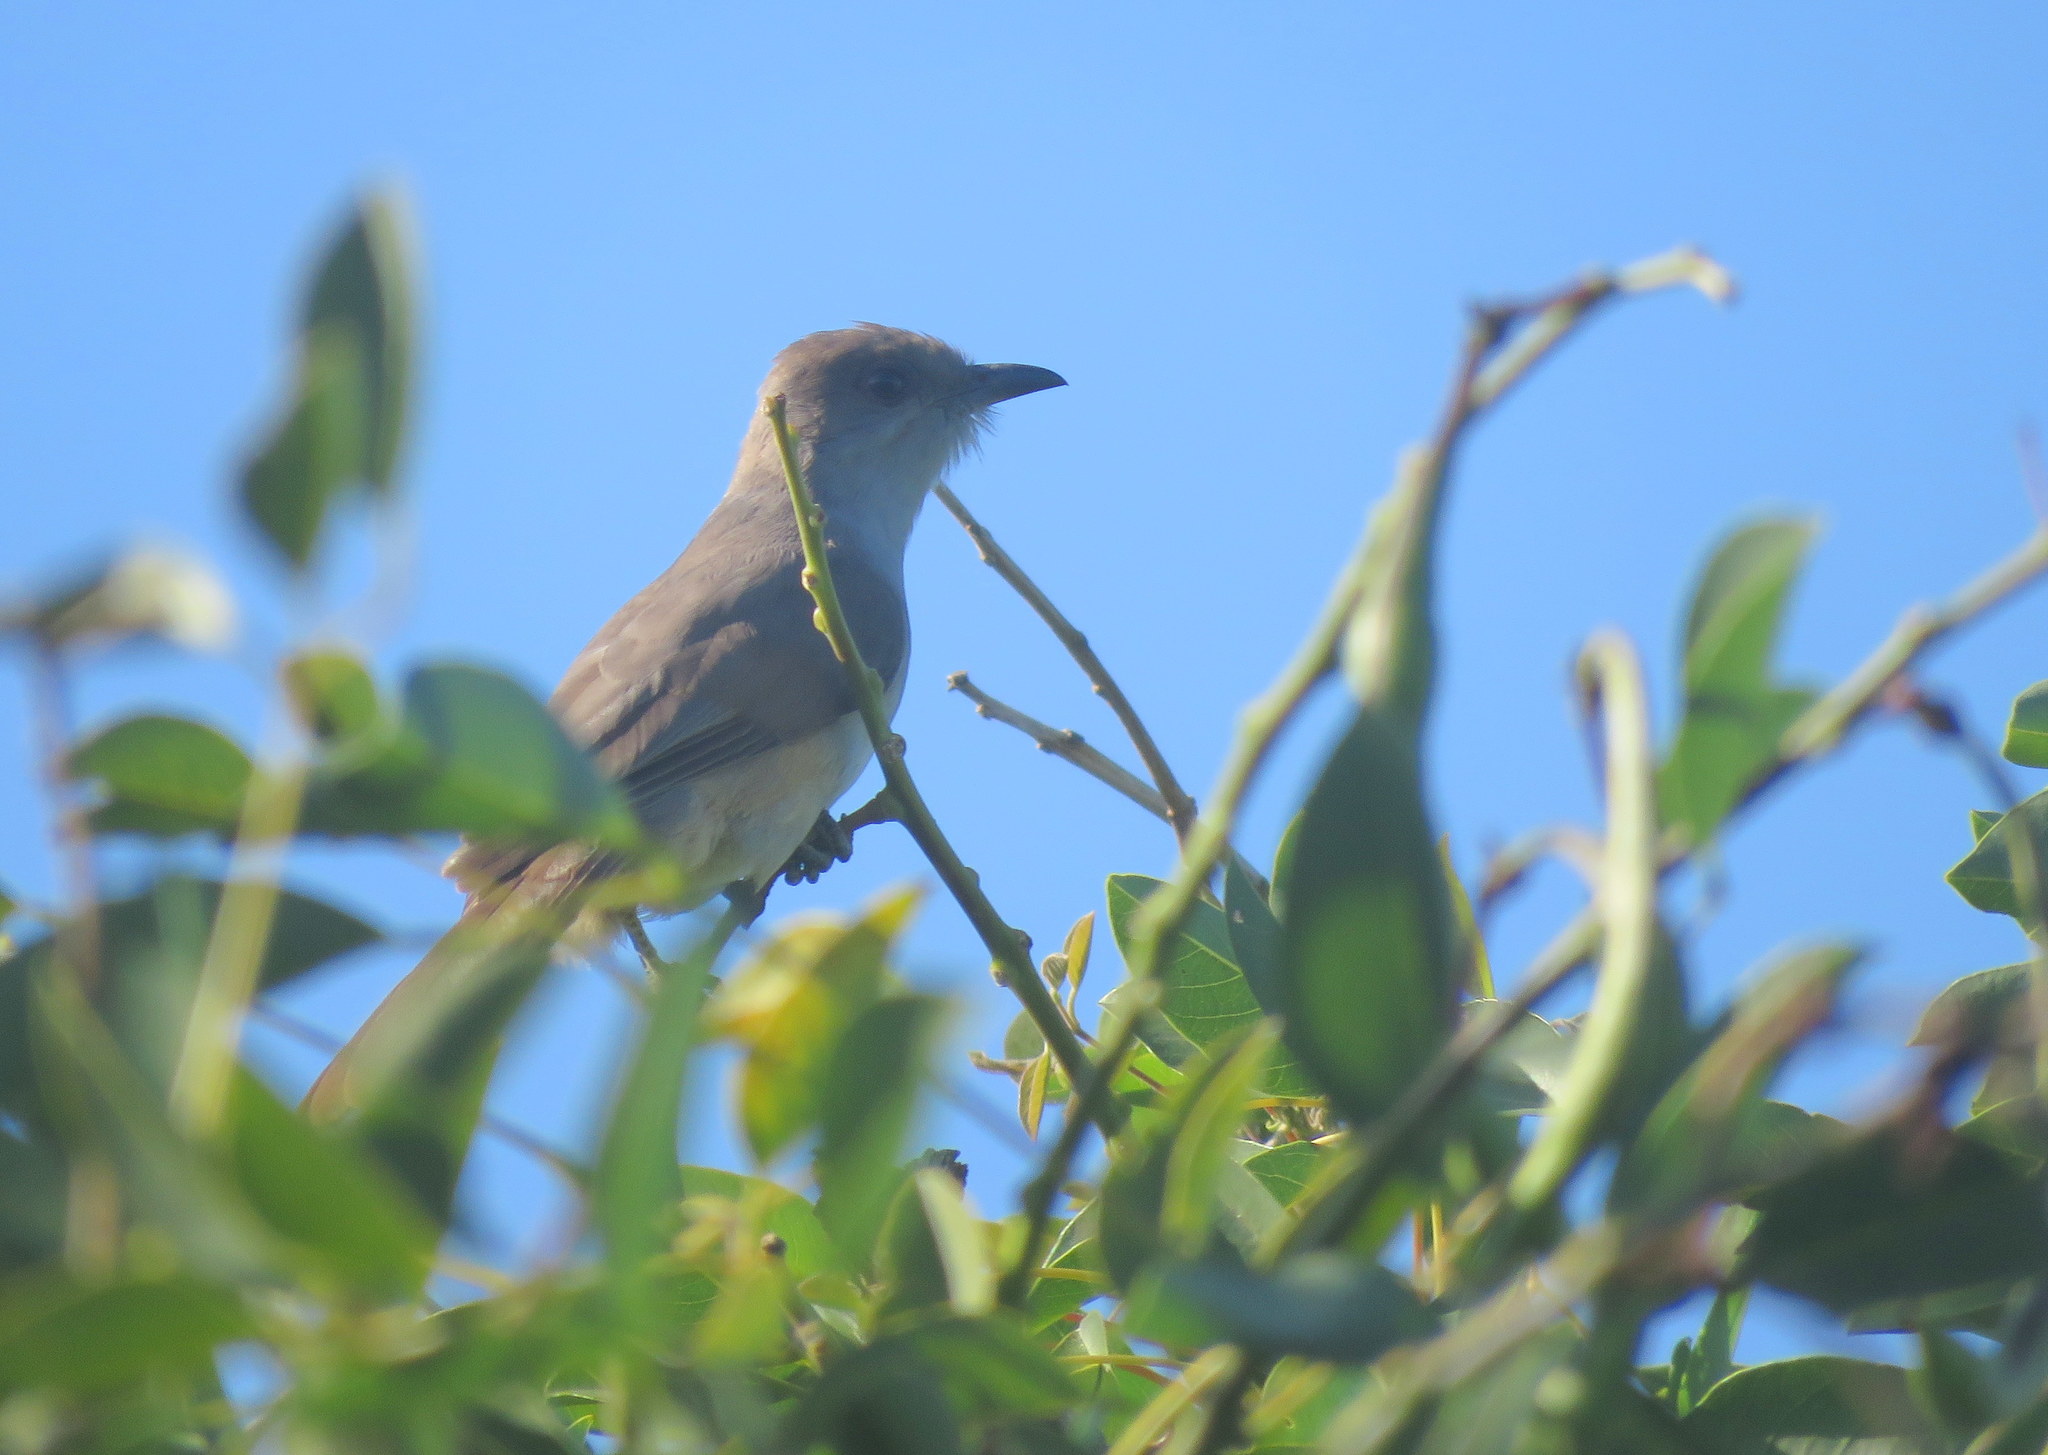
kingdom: Animalia
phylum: Chordata
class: Aves
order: Cuculiformes
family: Cuculidae
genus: Coccyzus
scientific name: Coccyzus cinereus
